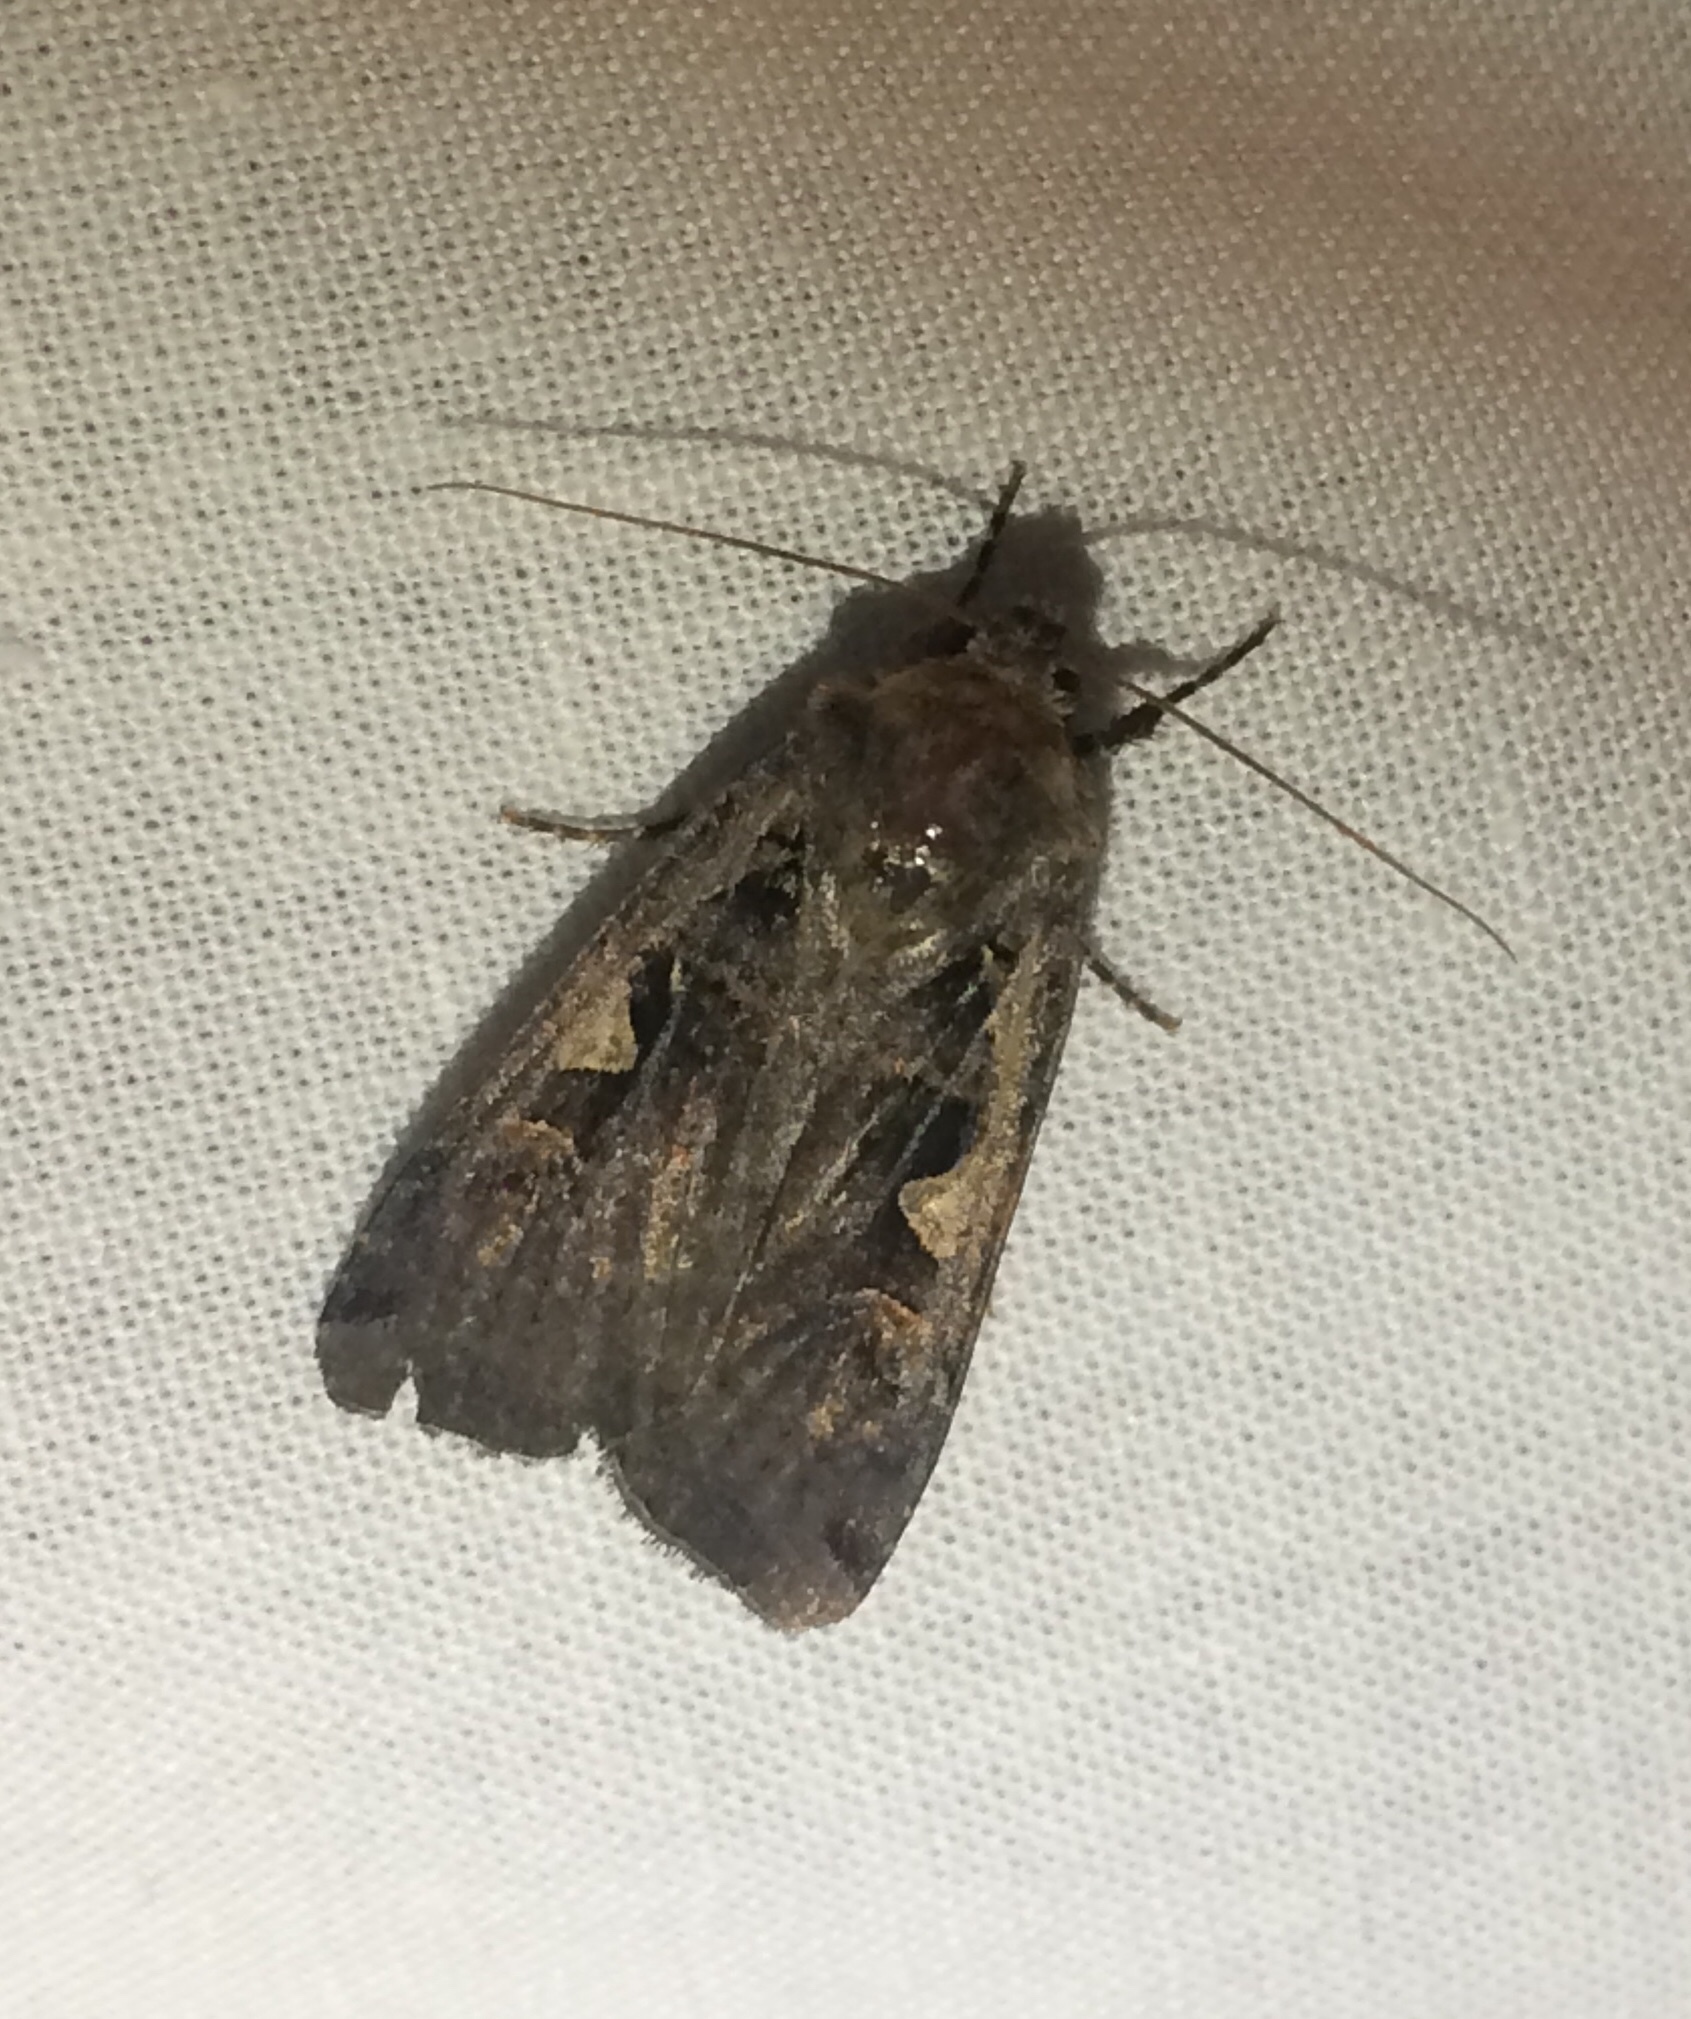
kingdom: Animalia
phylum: Arthropoda
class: Insecta
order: Lepidoptera
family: Noctuidae
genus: Xestia
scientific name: Xestia c-nigrum
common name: Setaceous hebrew character
